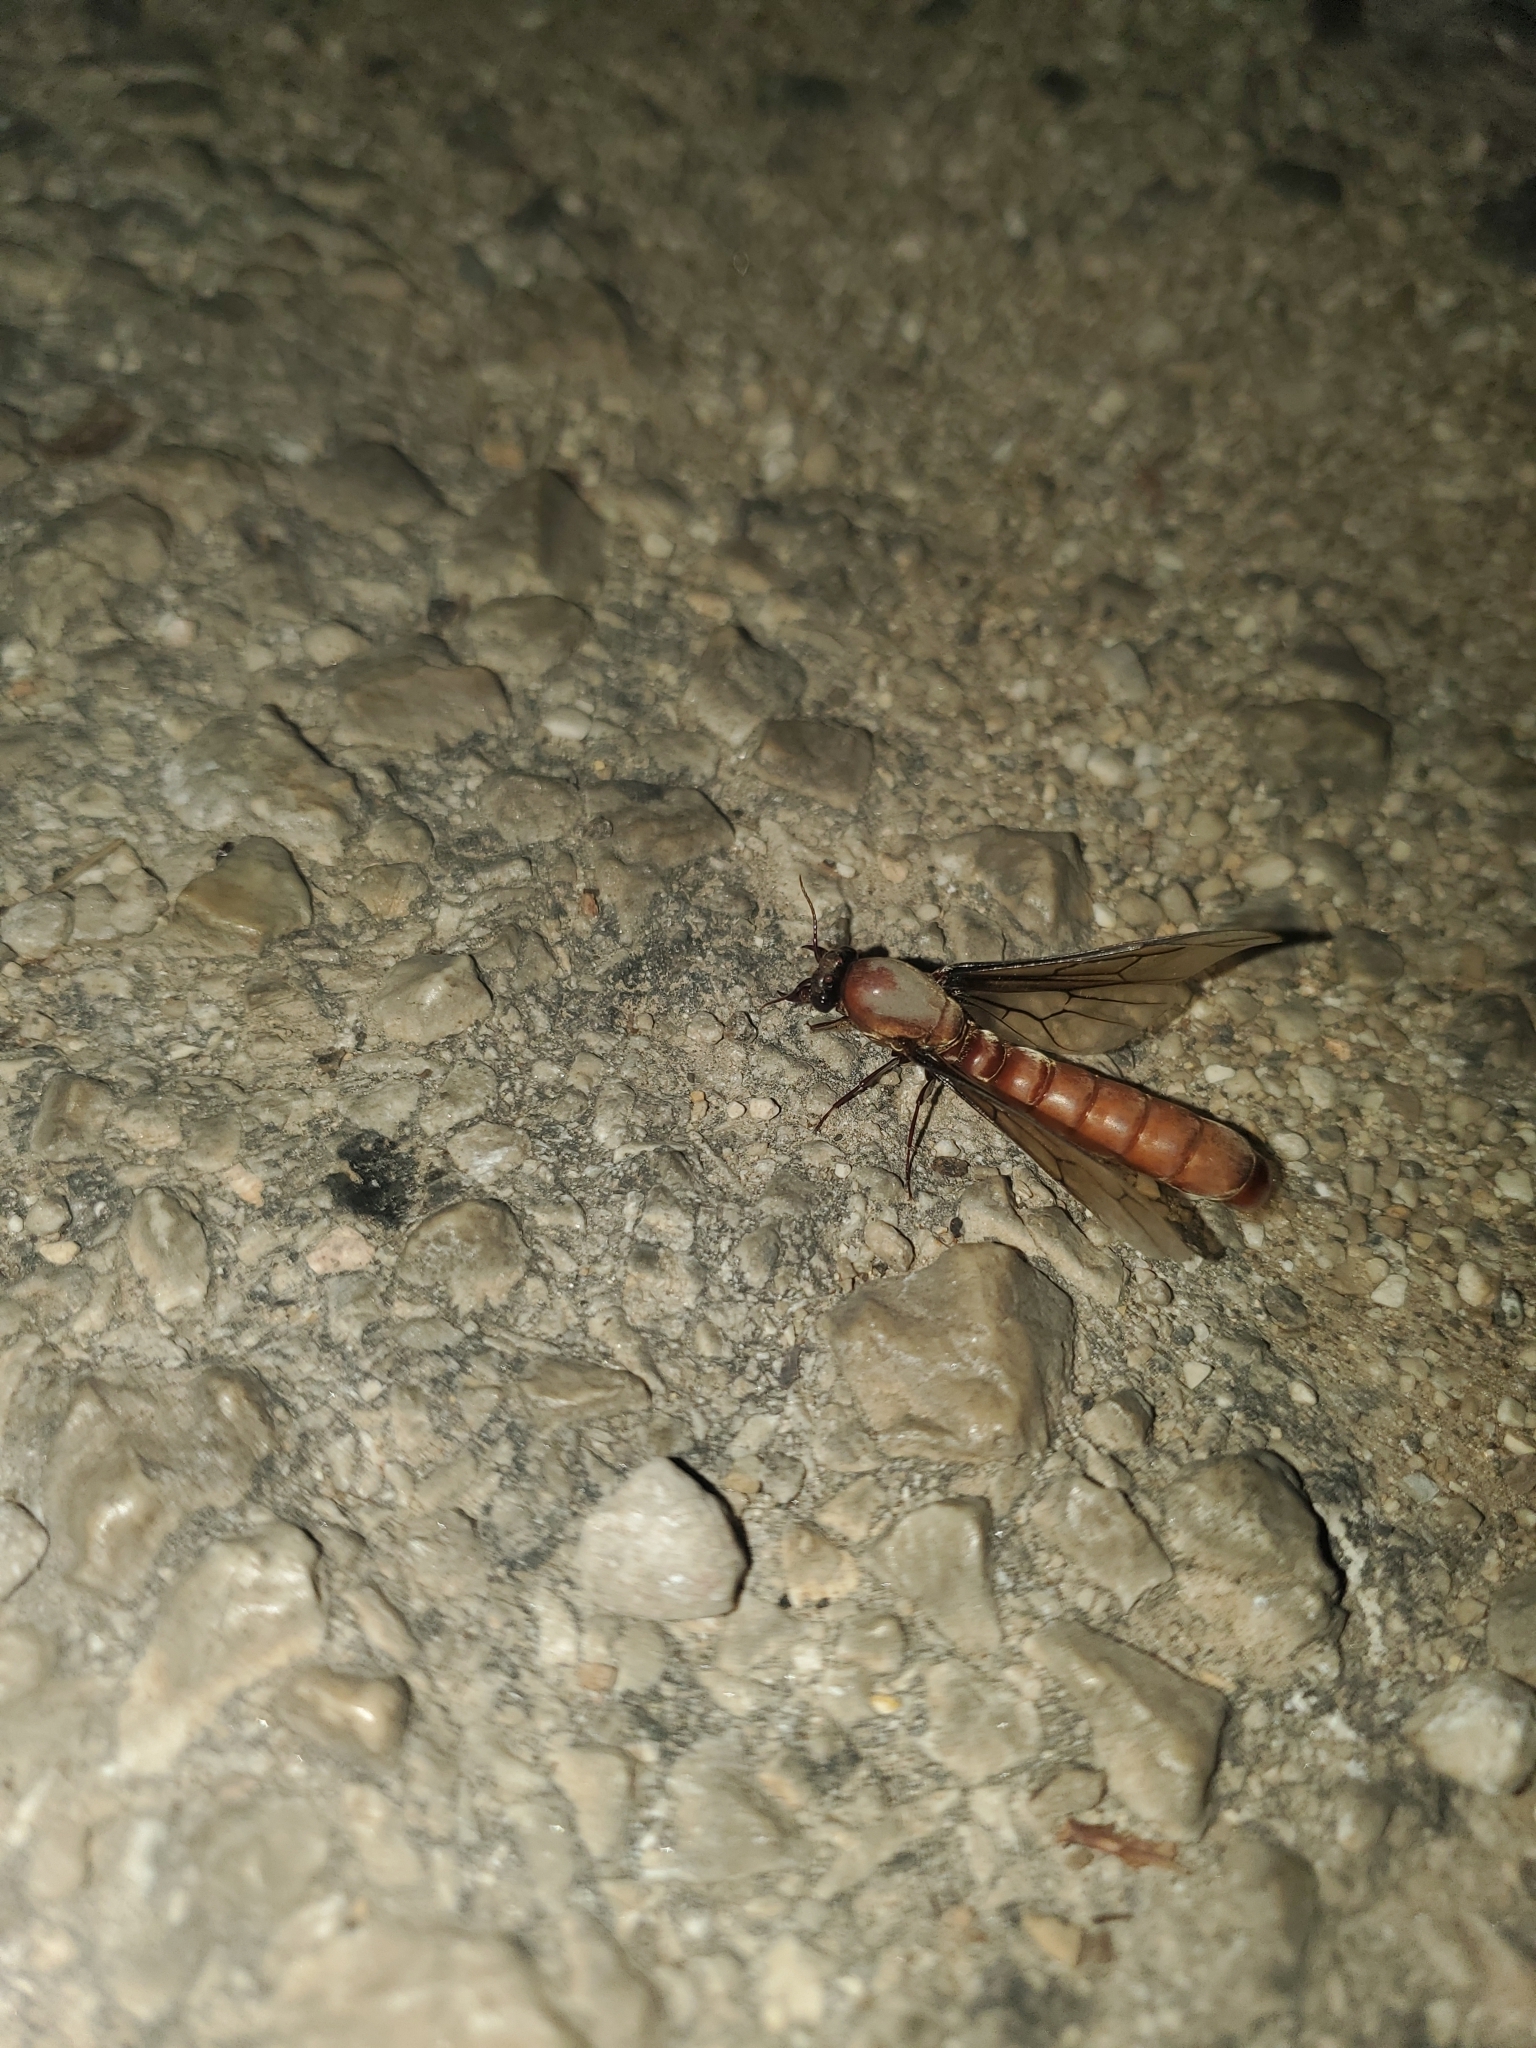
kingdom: Animalia
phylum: Arthropoda
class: Insecta
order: Hymenoptera
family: Formicidae
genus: Dorylus
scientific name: Dorylus fulvus
